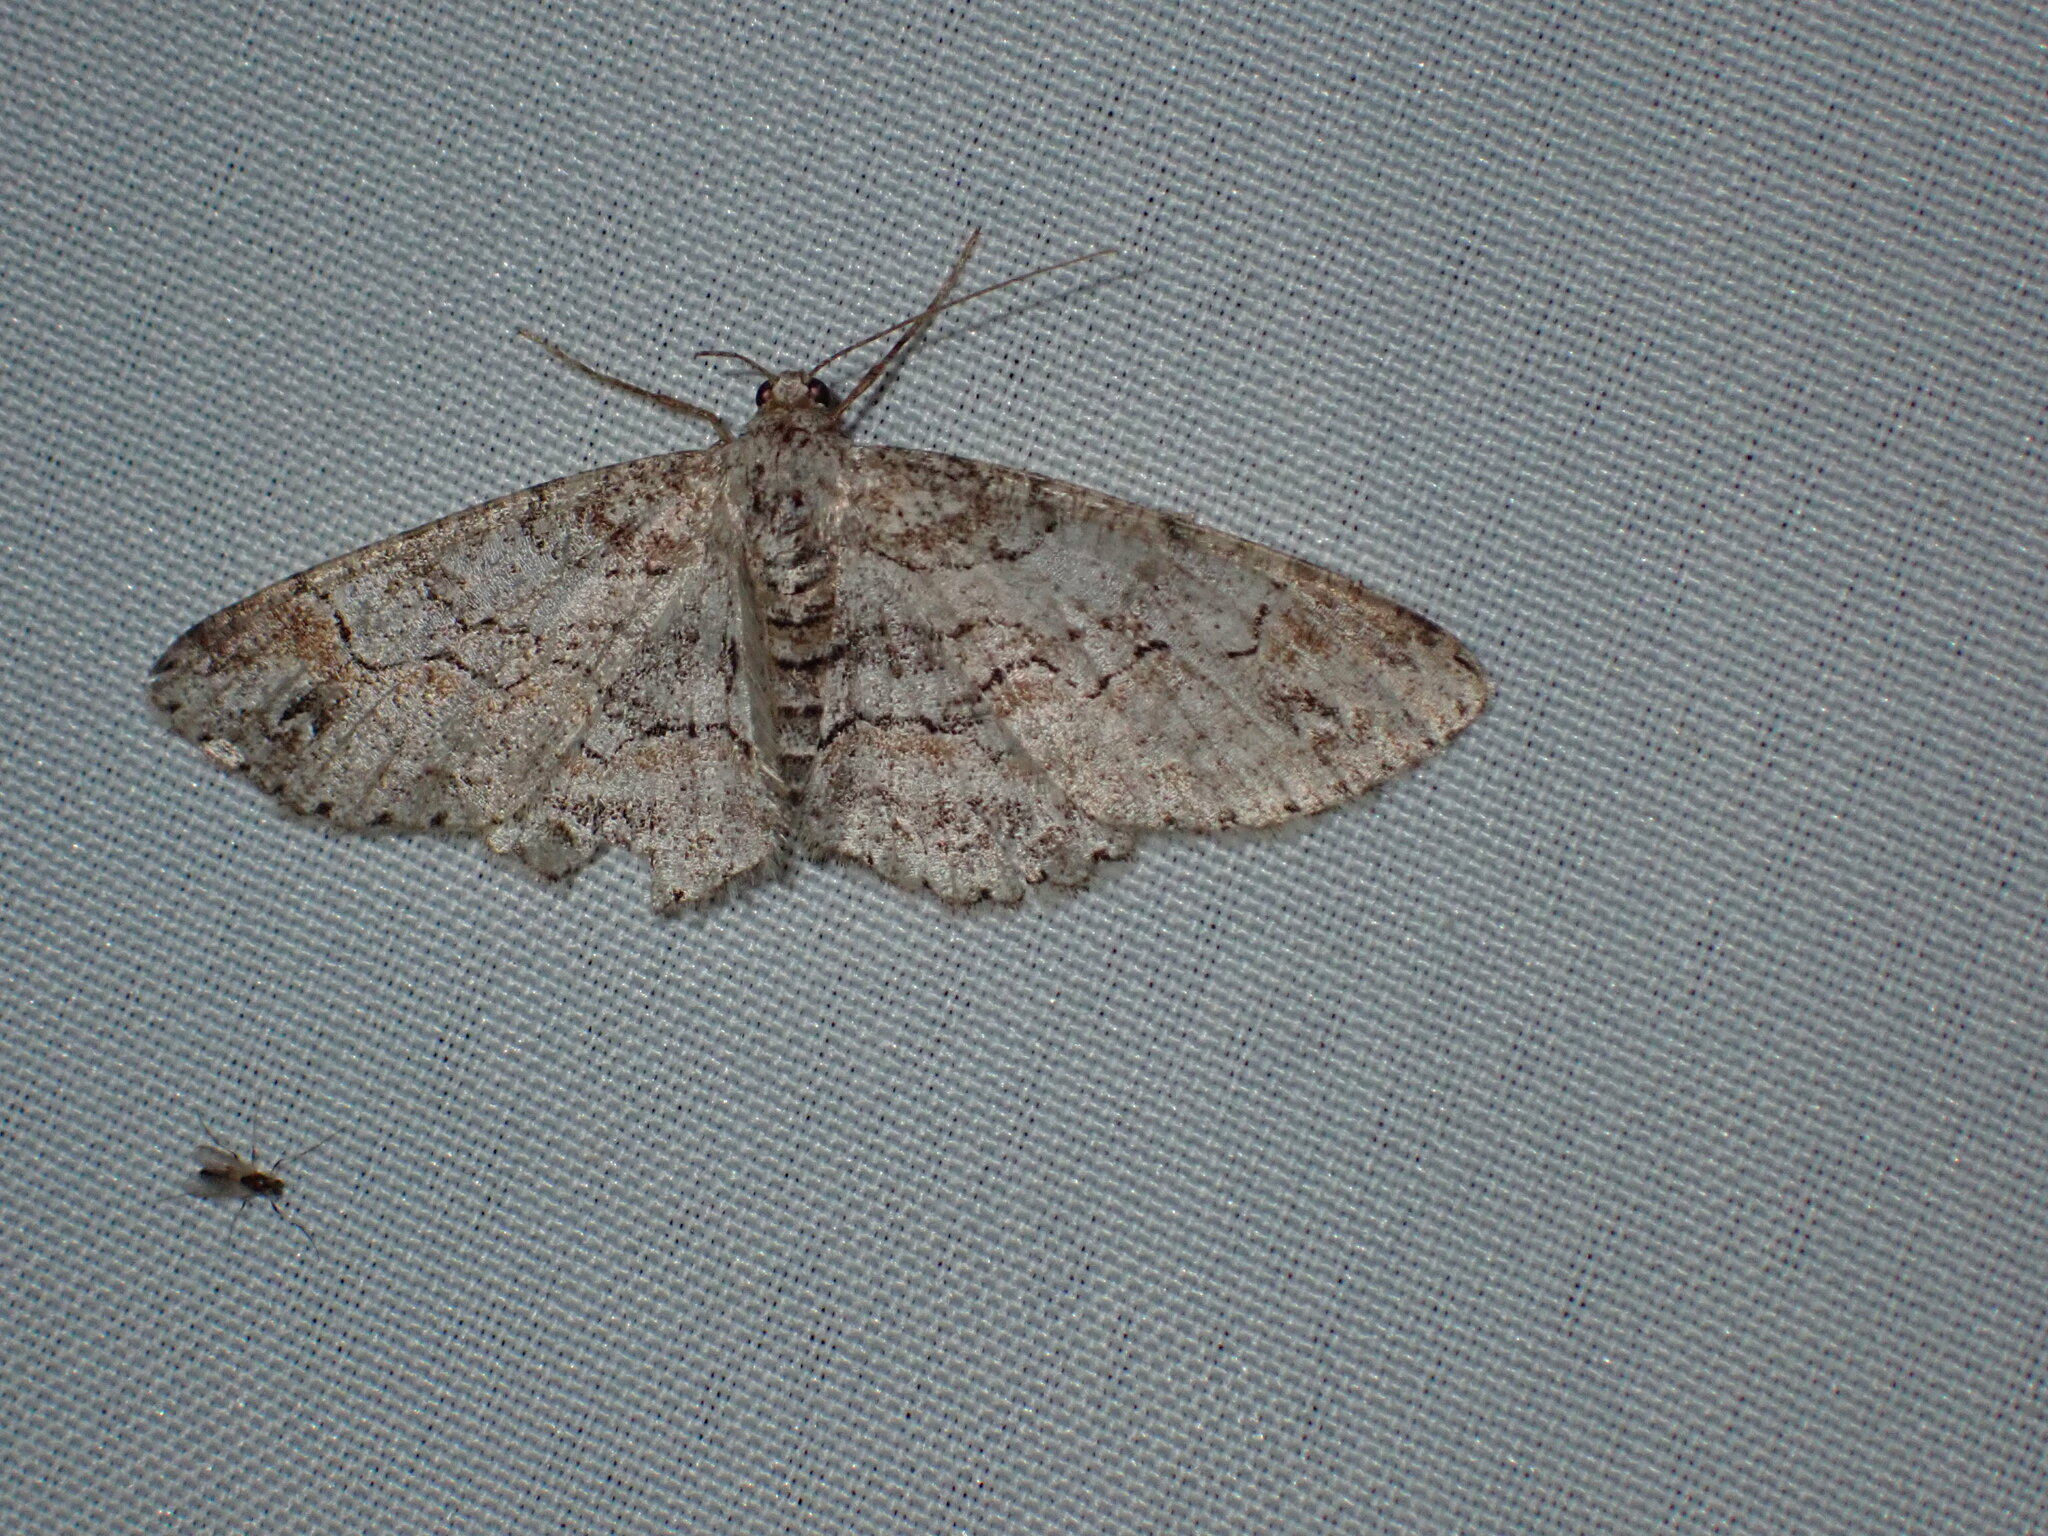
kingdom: Animalia
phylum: Arthropoda
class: Insecta
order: Lepidoptera
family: Geometridae
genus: Iridopsis
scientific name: Iridopsis emasculatum
